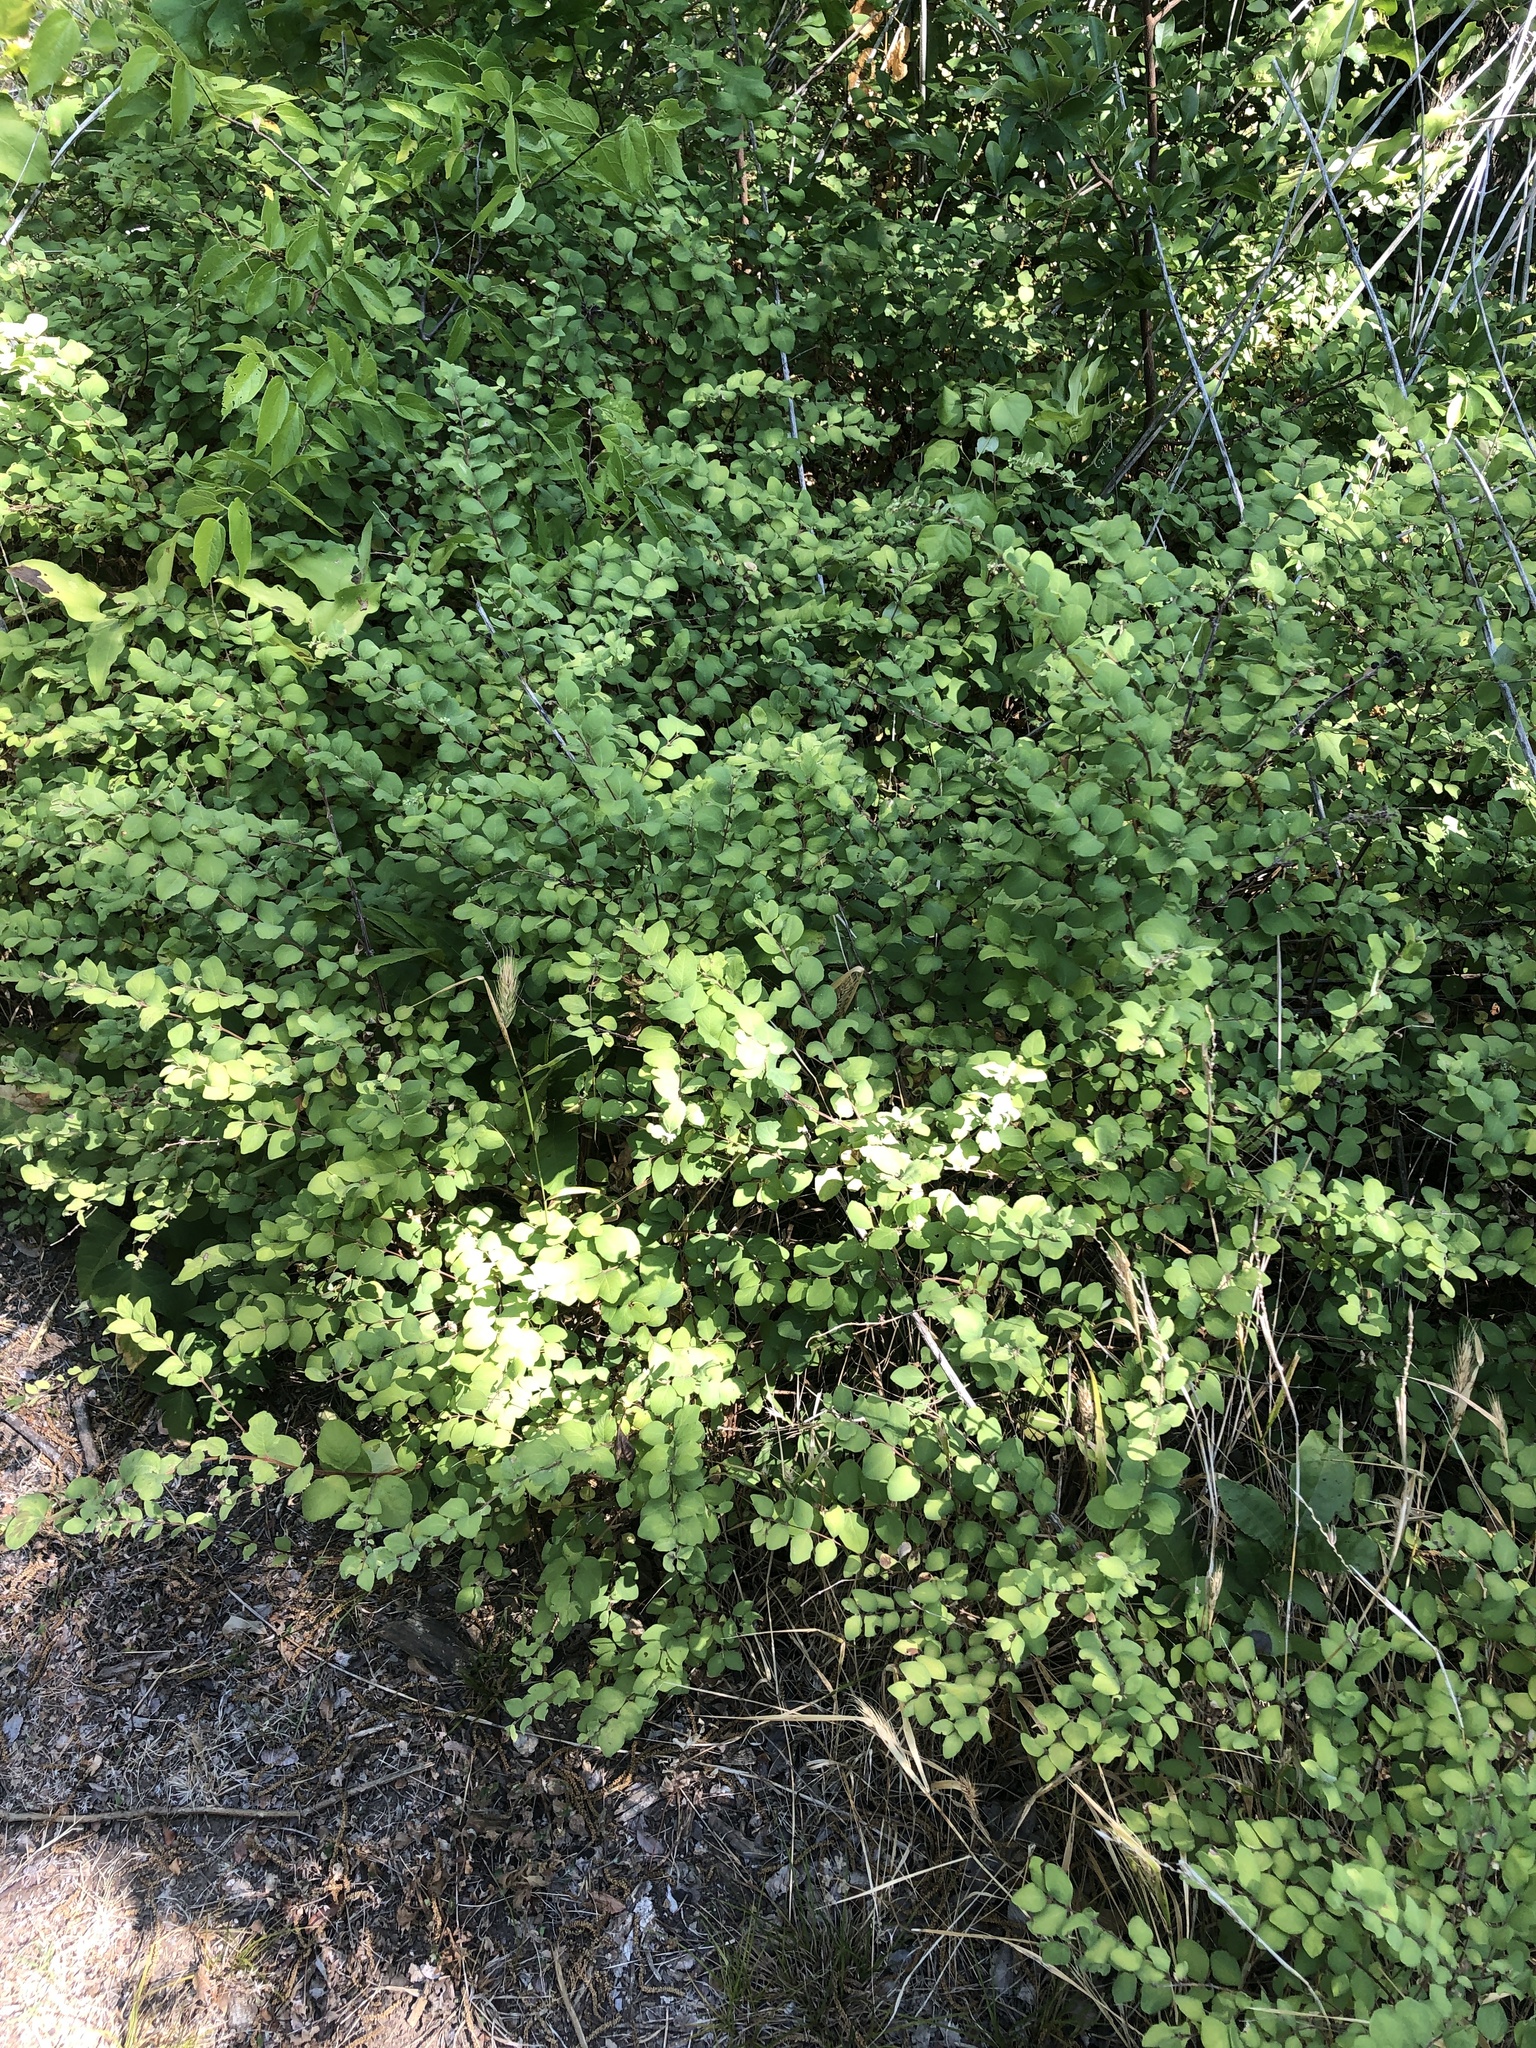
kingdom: Plantae
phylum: Tracheophyta
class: Magnoliopsida
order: Dipsacales
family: Caprifoliaceae
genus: Symphoricarpos
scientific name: Symphoricarpos orbiculatus
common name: Coralberry
